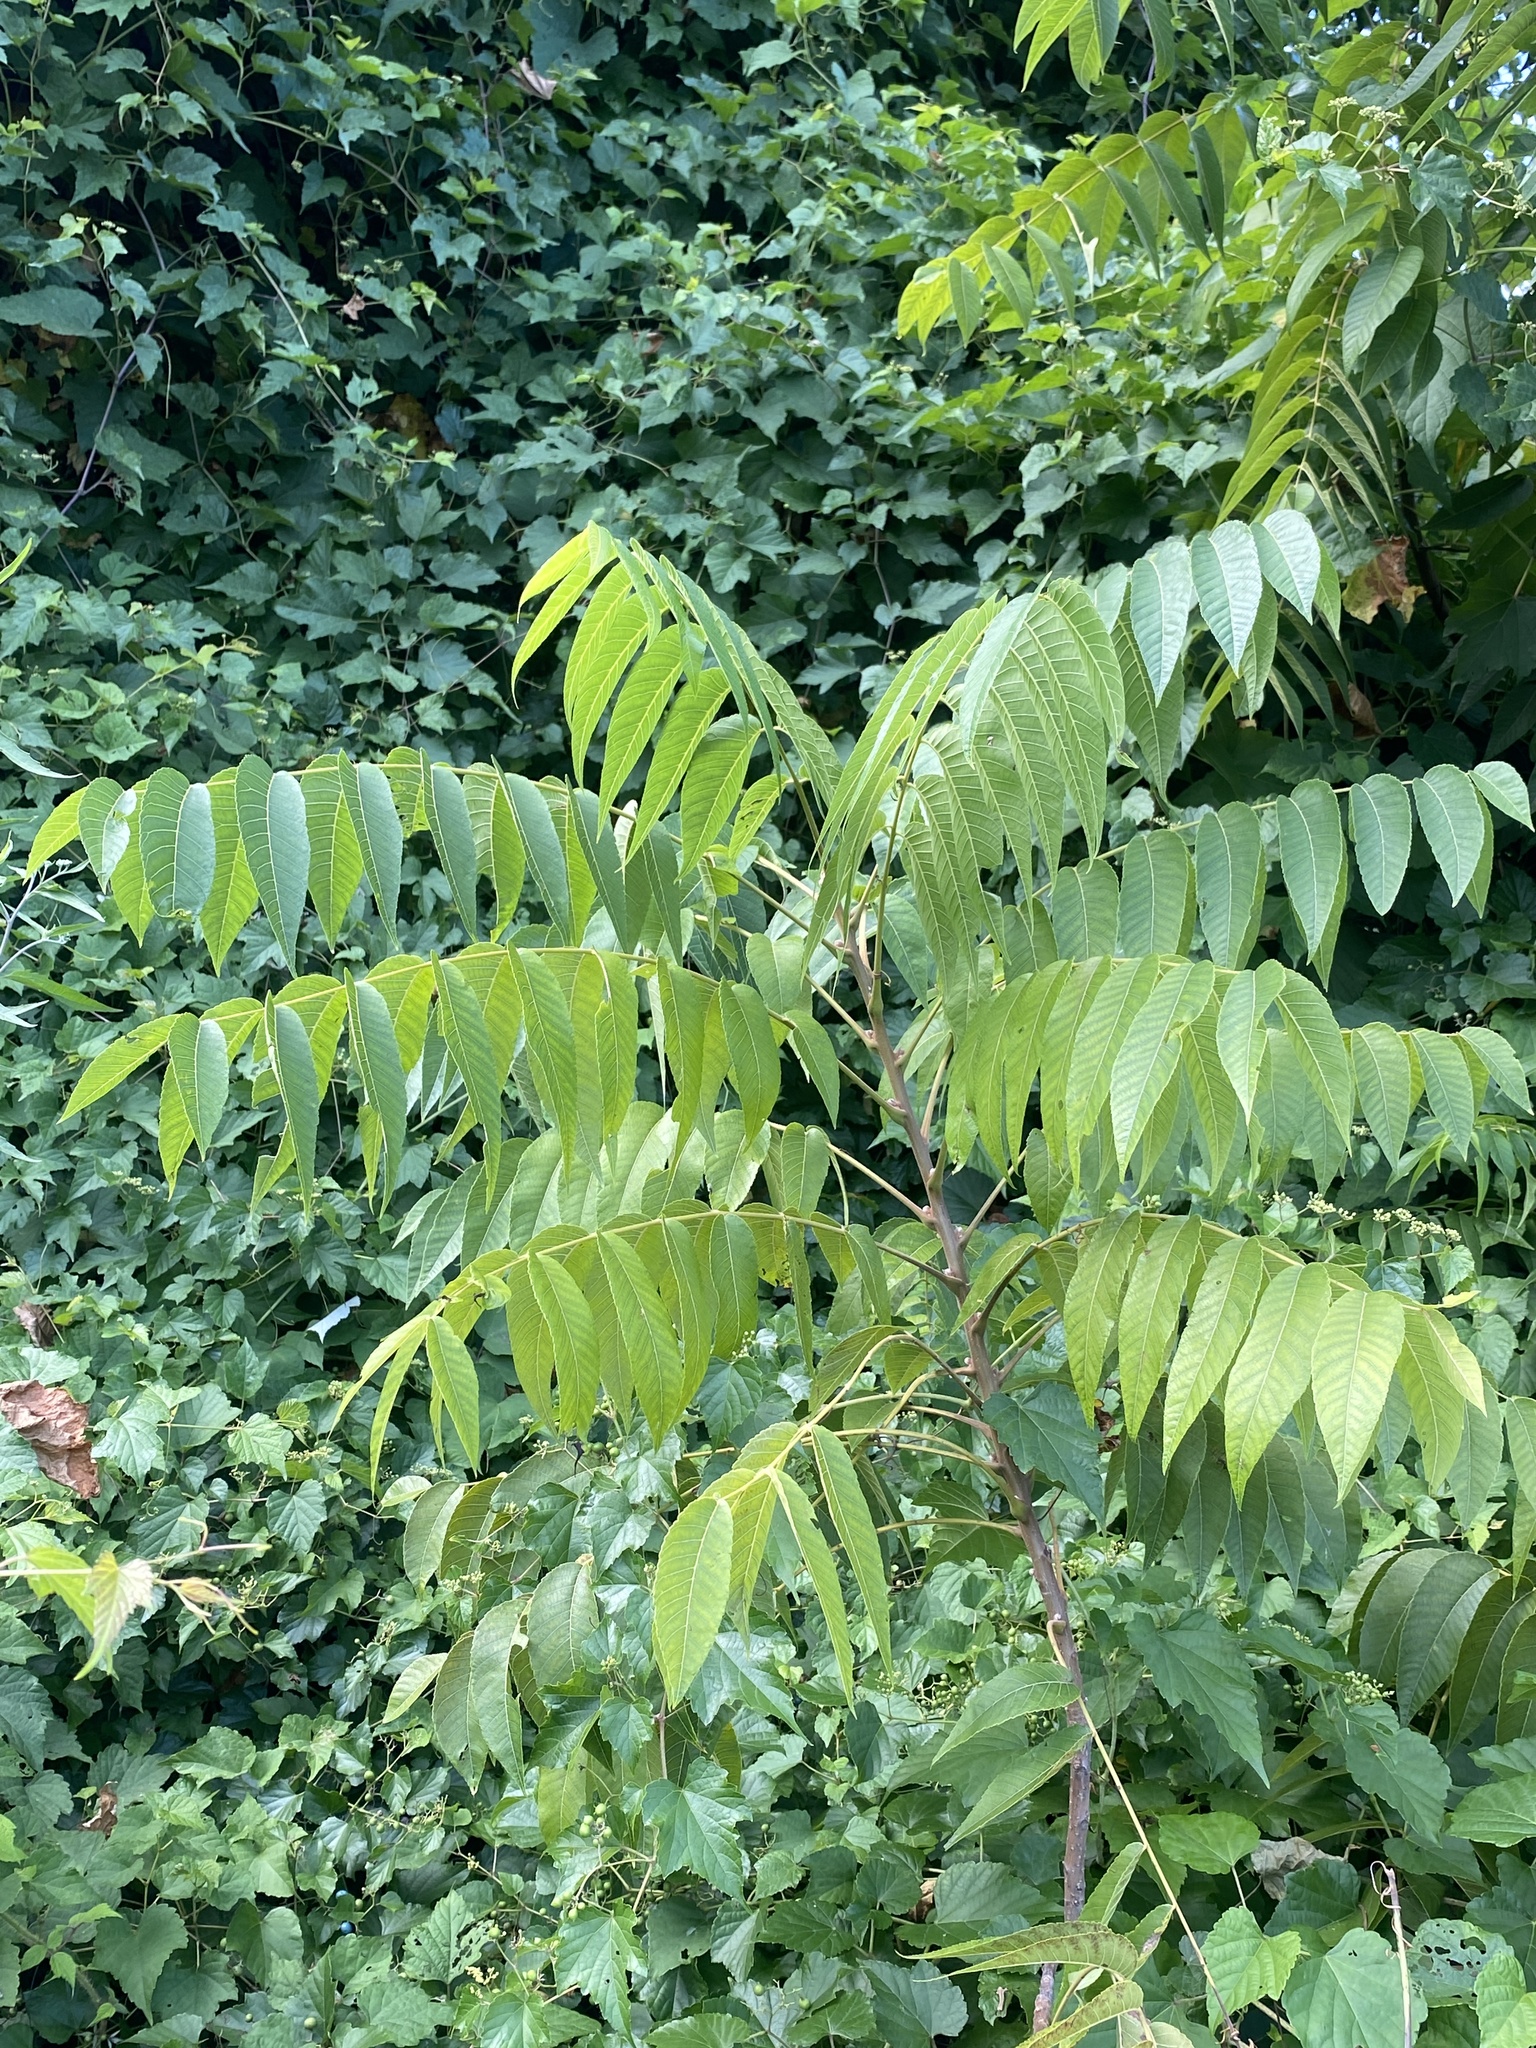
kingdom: Plantae
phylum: Tracheophyta
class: Magnoliopsida
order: Fagales
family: Juglandaceae
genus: Juglans
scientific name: Juglans nigra
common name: Black walnut
